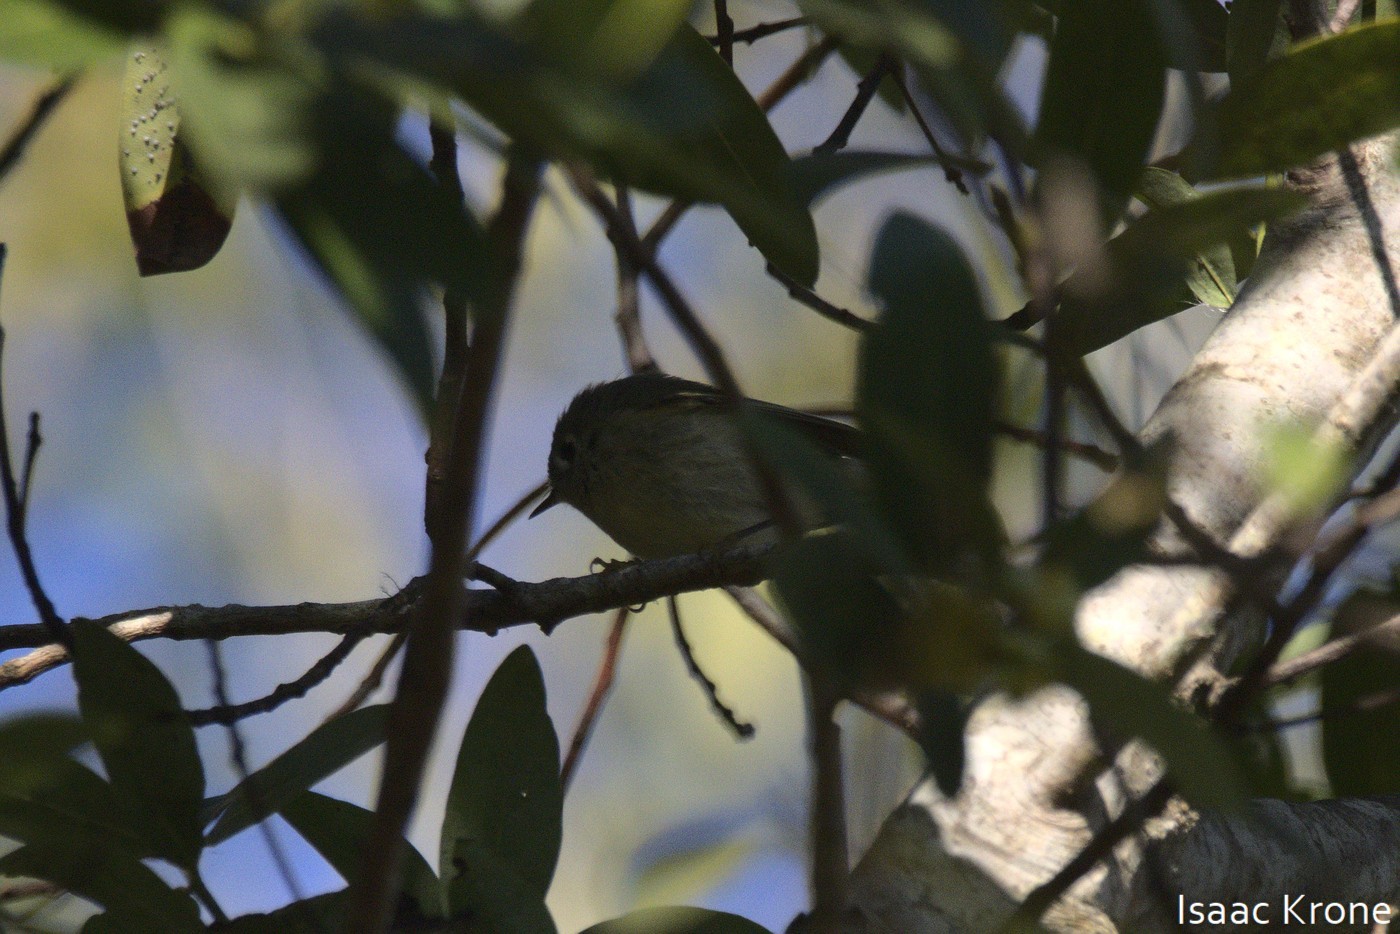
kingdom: Animalia
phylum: Chordata
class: Aves
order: Passeriformes
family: Regulidae
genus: Regulus
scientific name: Regulus calendula
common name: Ruby-crowned kinglet
